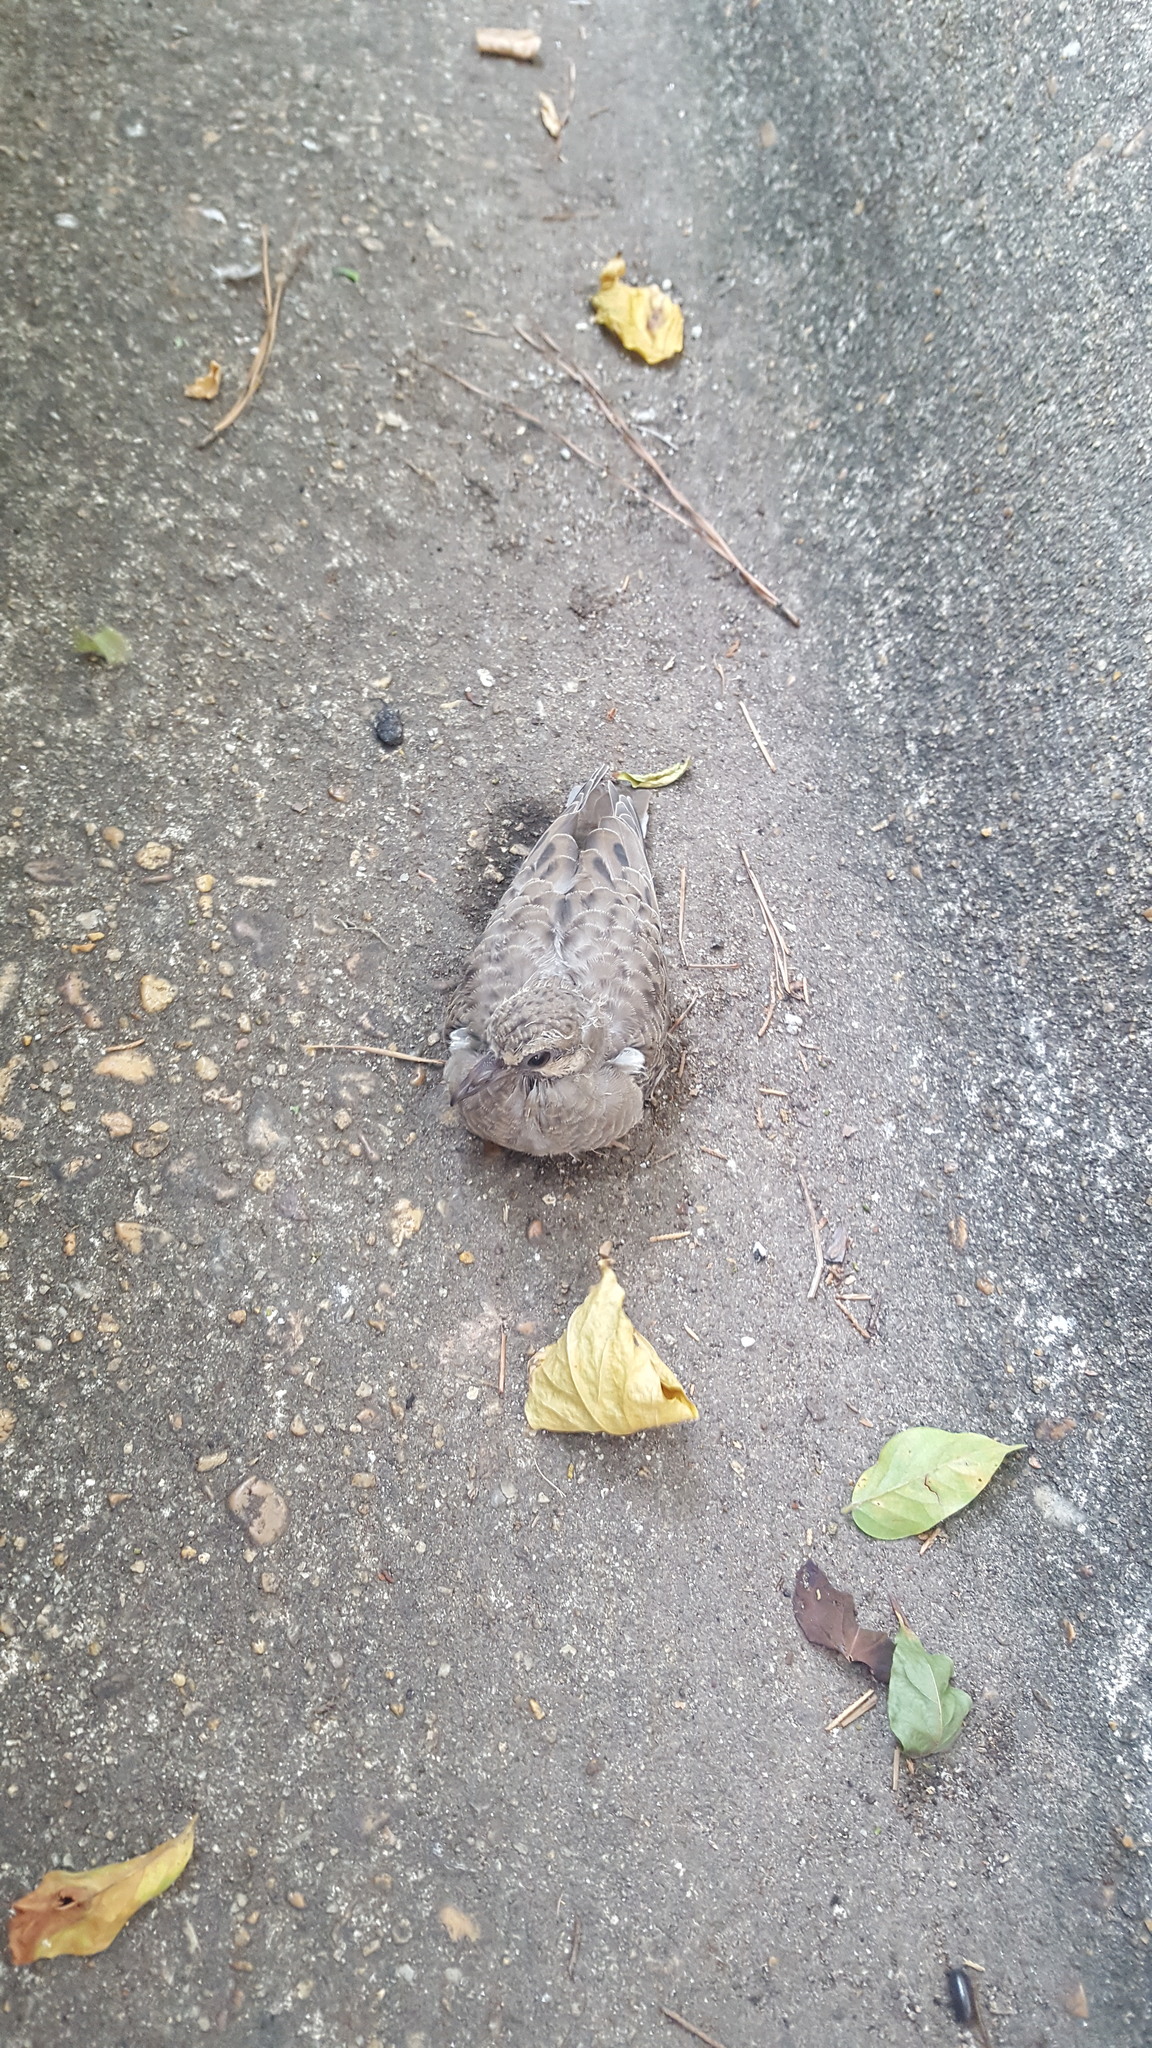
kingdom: Animalia
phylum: Chordata
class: Aves
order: Columbiformes
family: Columbidae
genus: Zenaida
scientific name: Zenaida macroura
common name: Mourning dove
